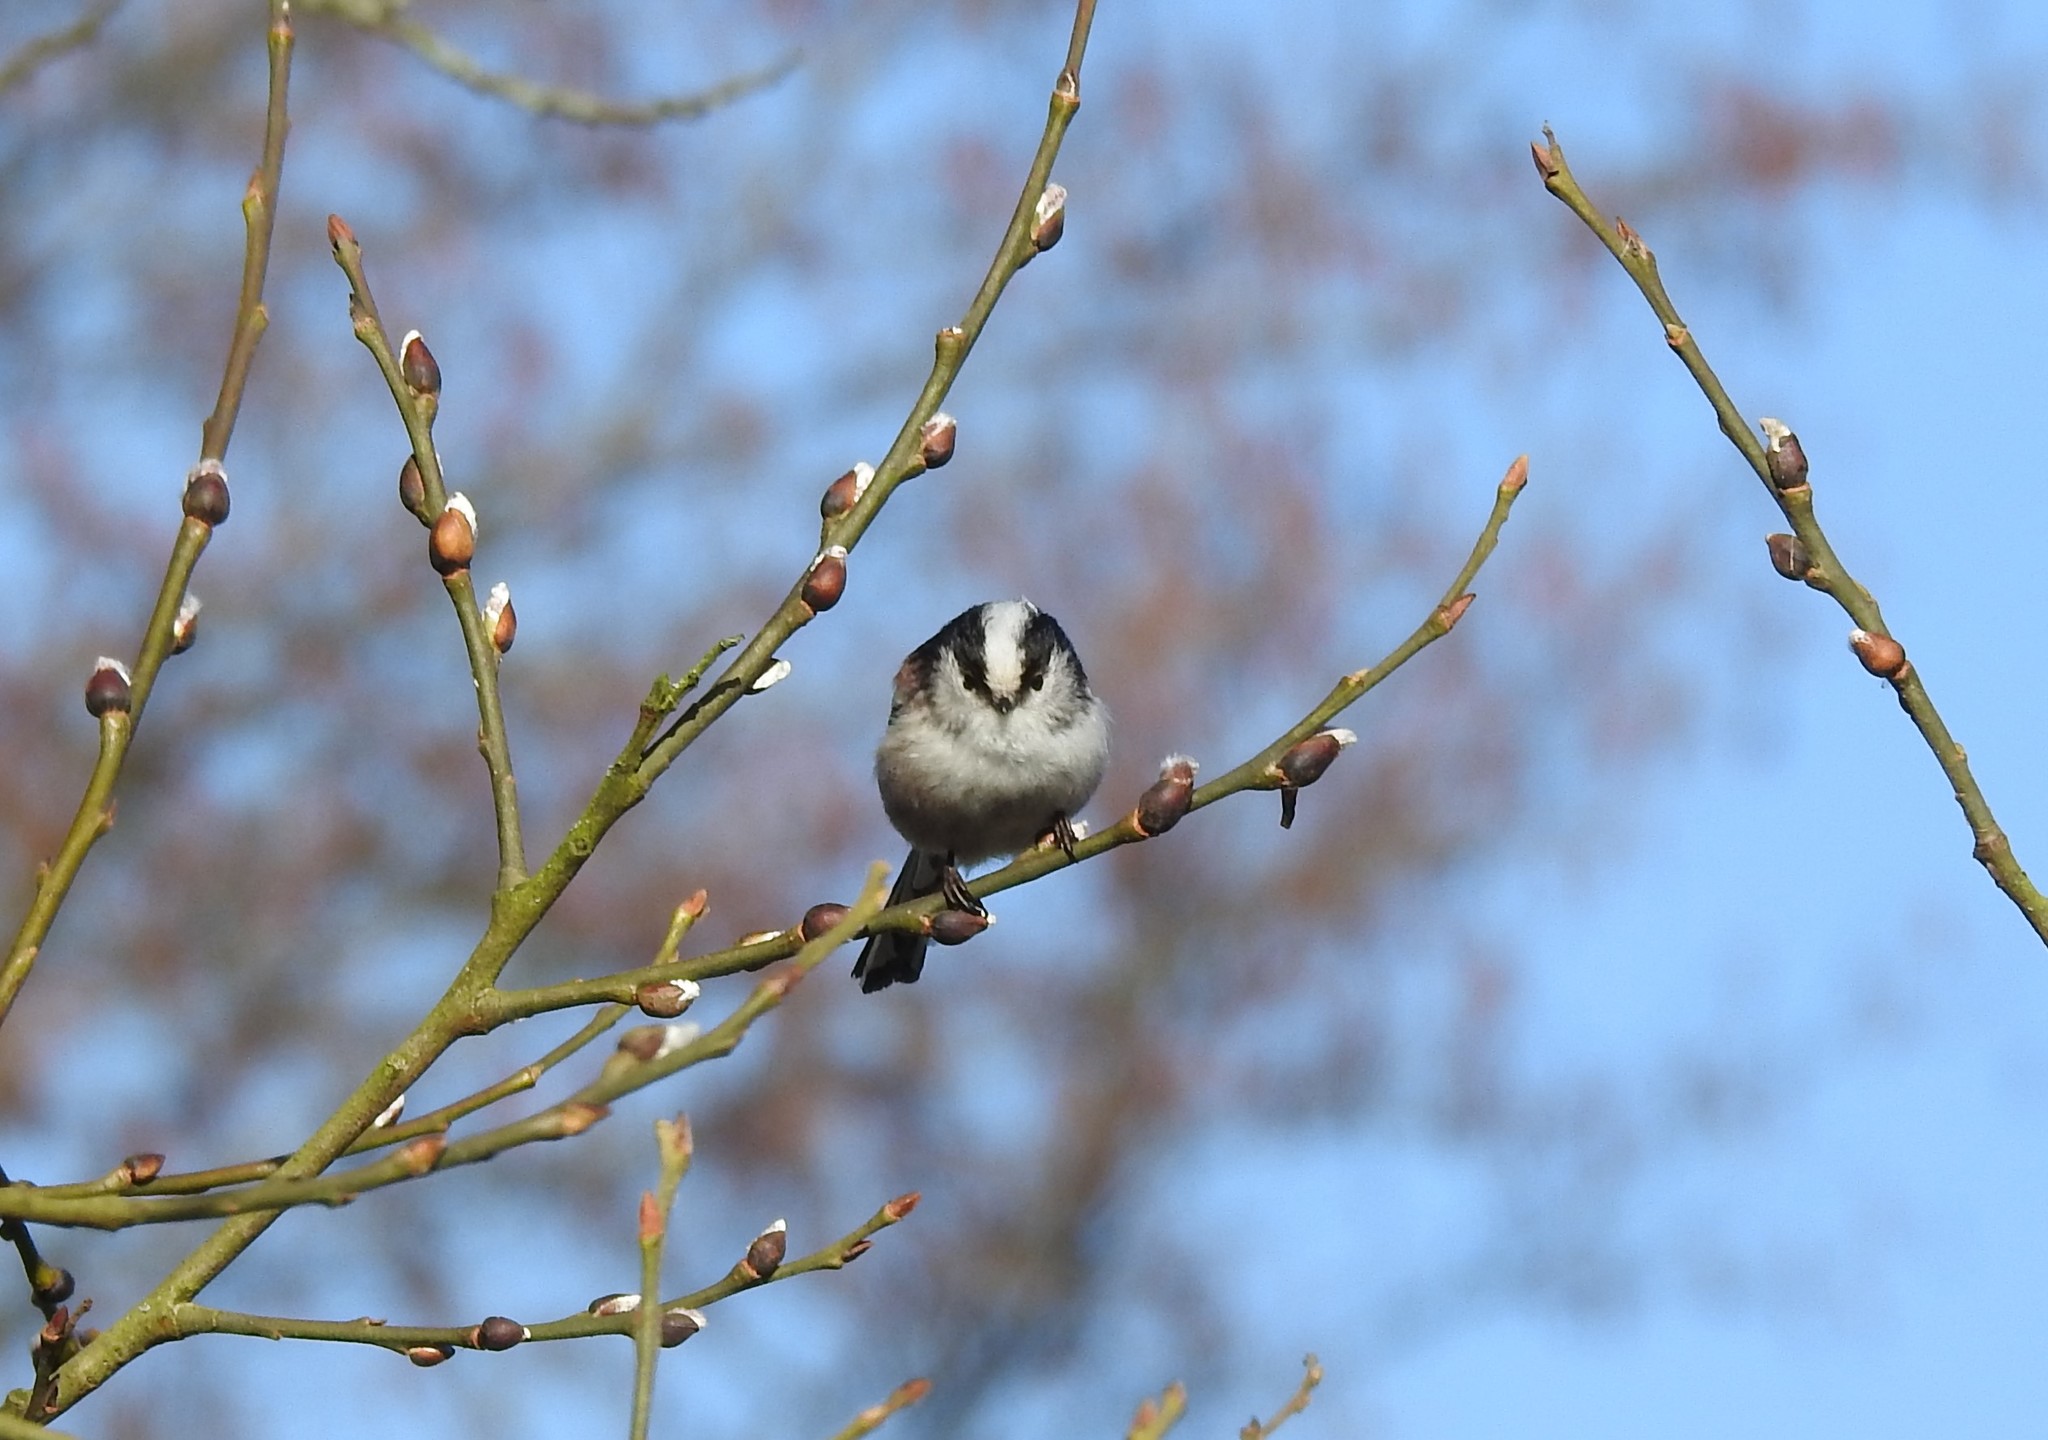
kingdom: Animalia
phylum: Chordata
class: Aves
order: Passeriformes
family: Aegithalidae
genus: Aegithalos
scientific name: Aegithalos caudatus
